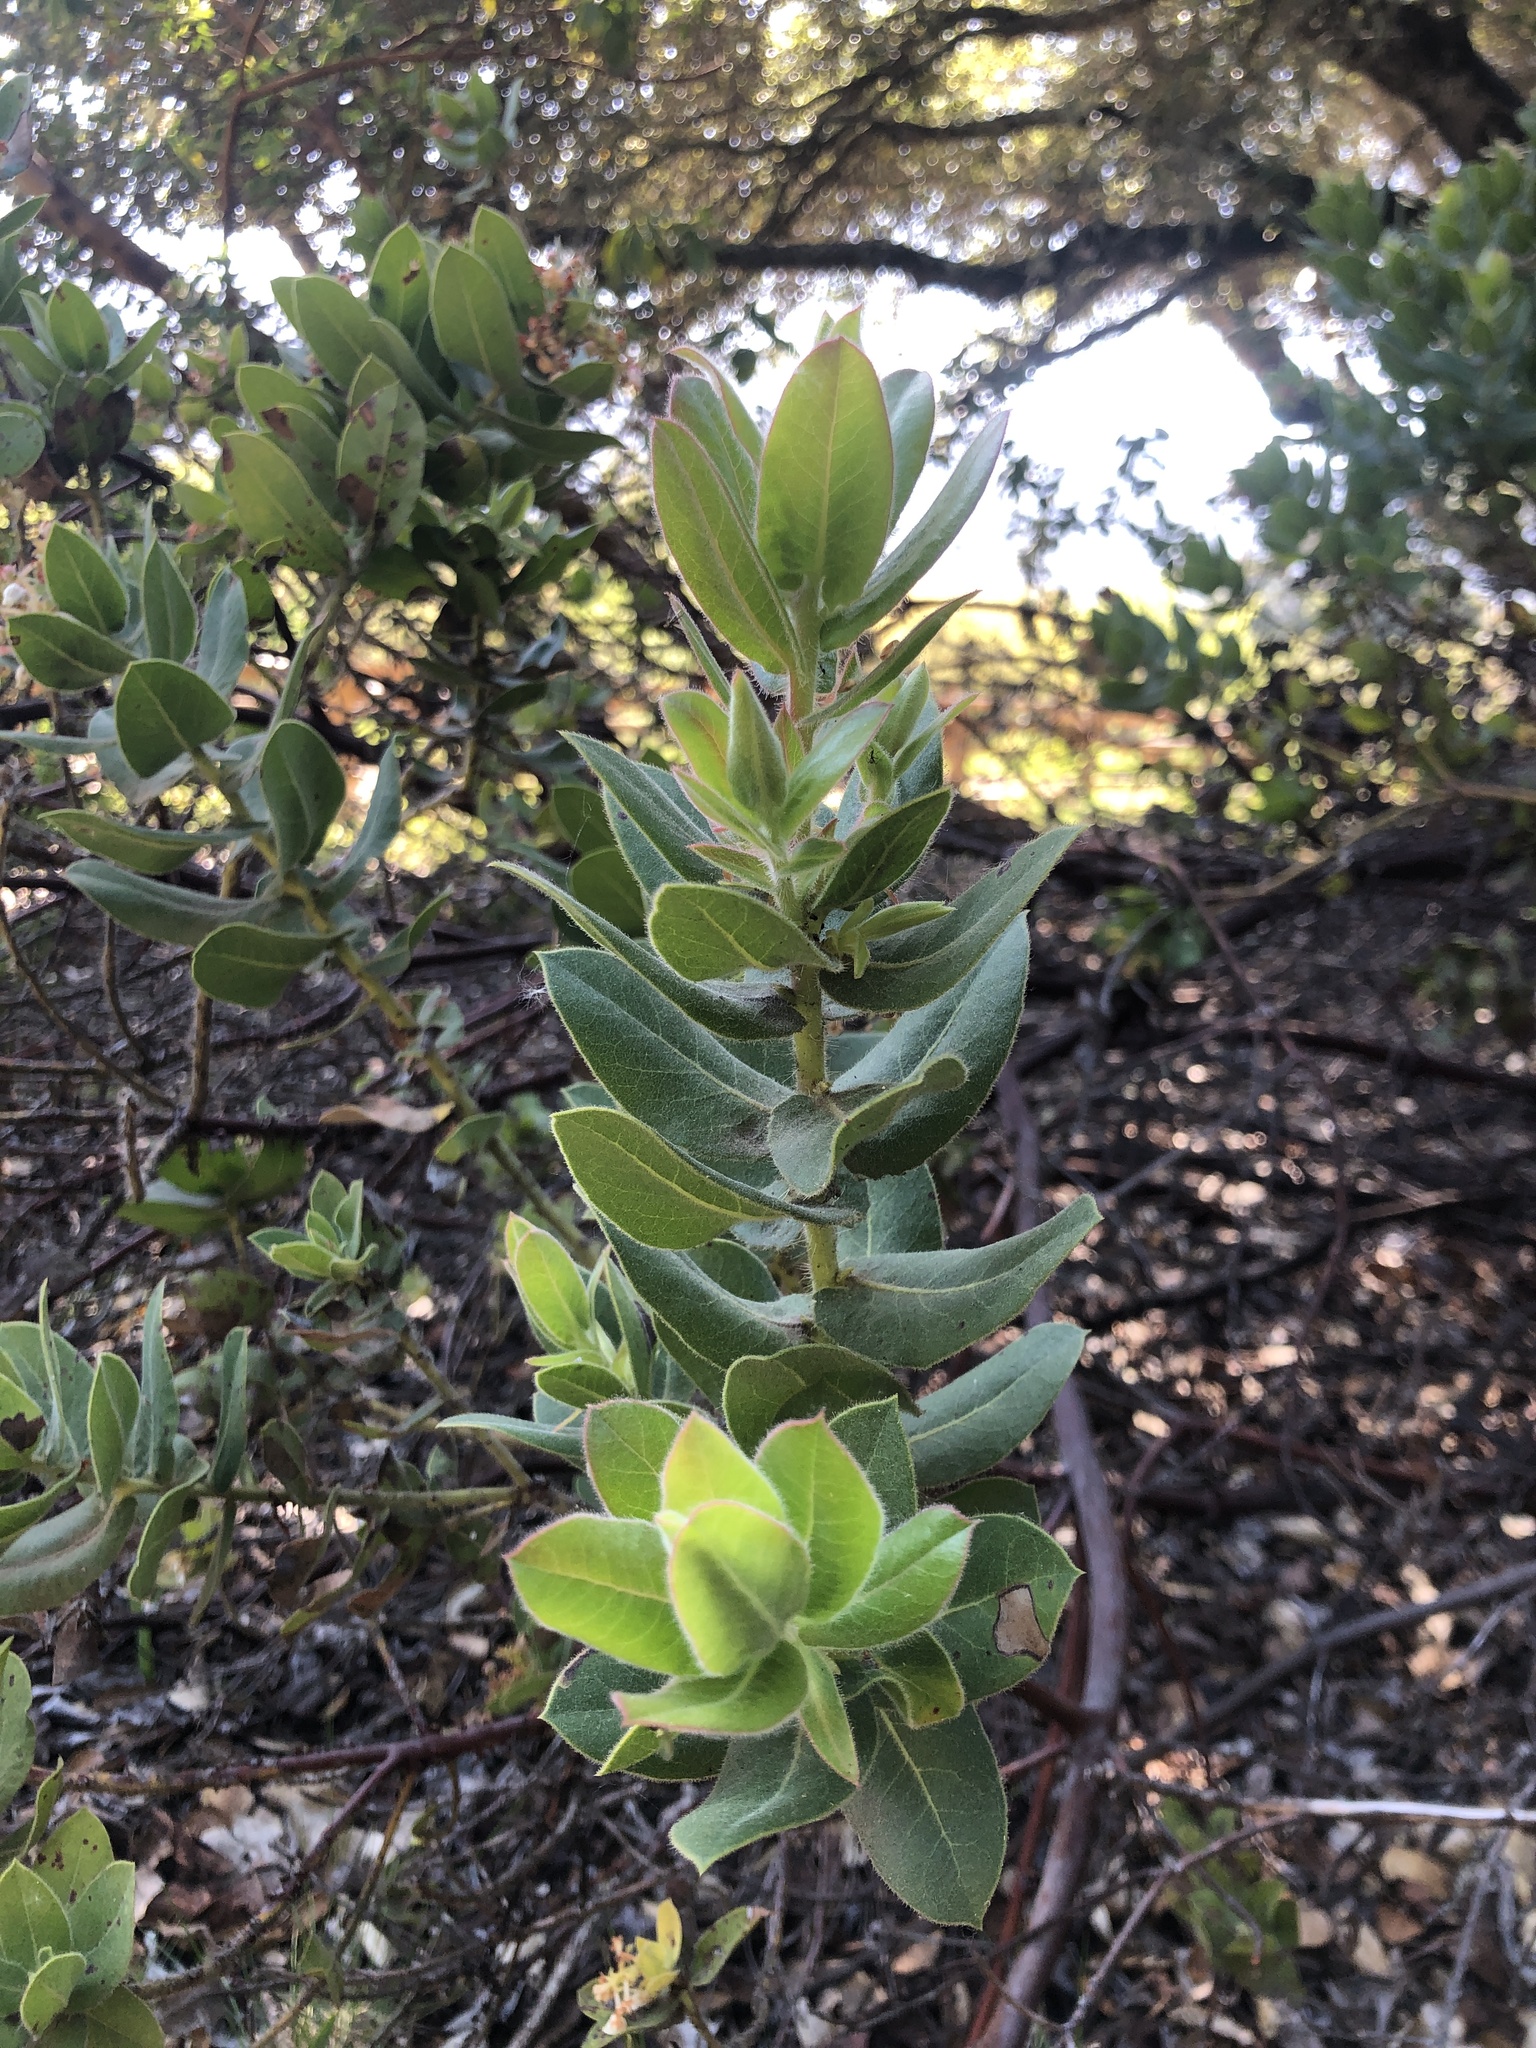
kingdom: Plantae
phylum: Tracheophyta
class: Magnoliopsida
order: Ericales
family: Ericaceae
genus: Arctostaphylos
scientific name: Arctostaphylos regismontana
